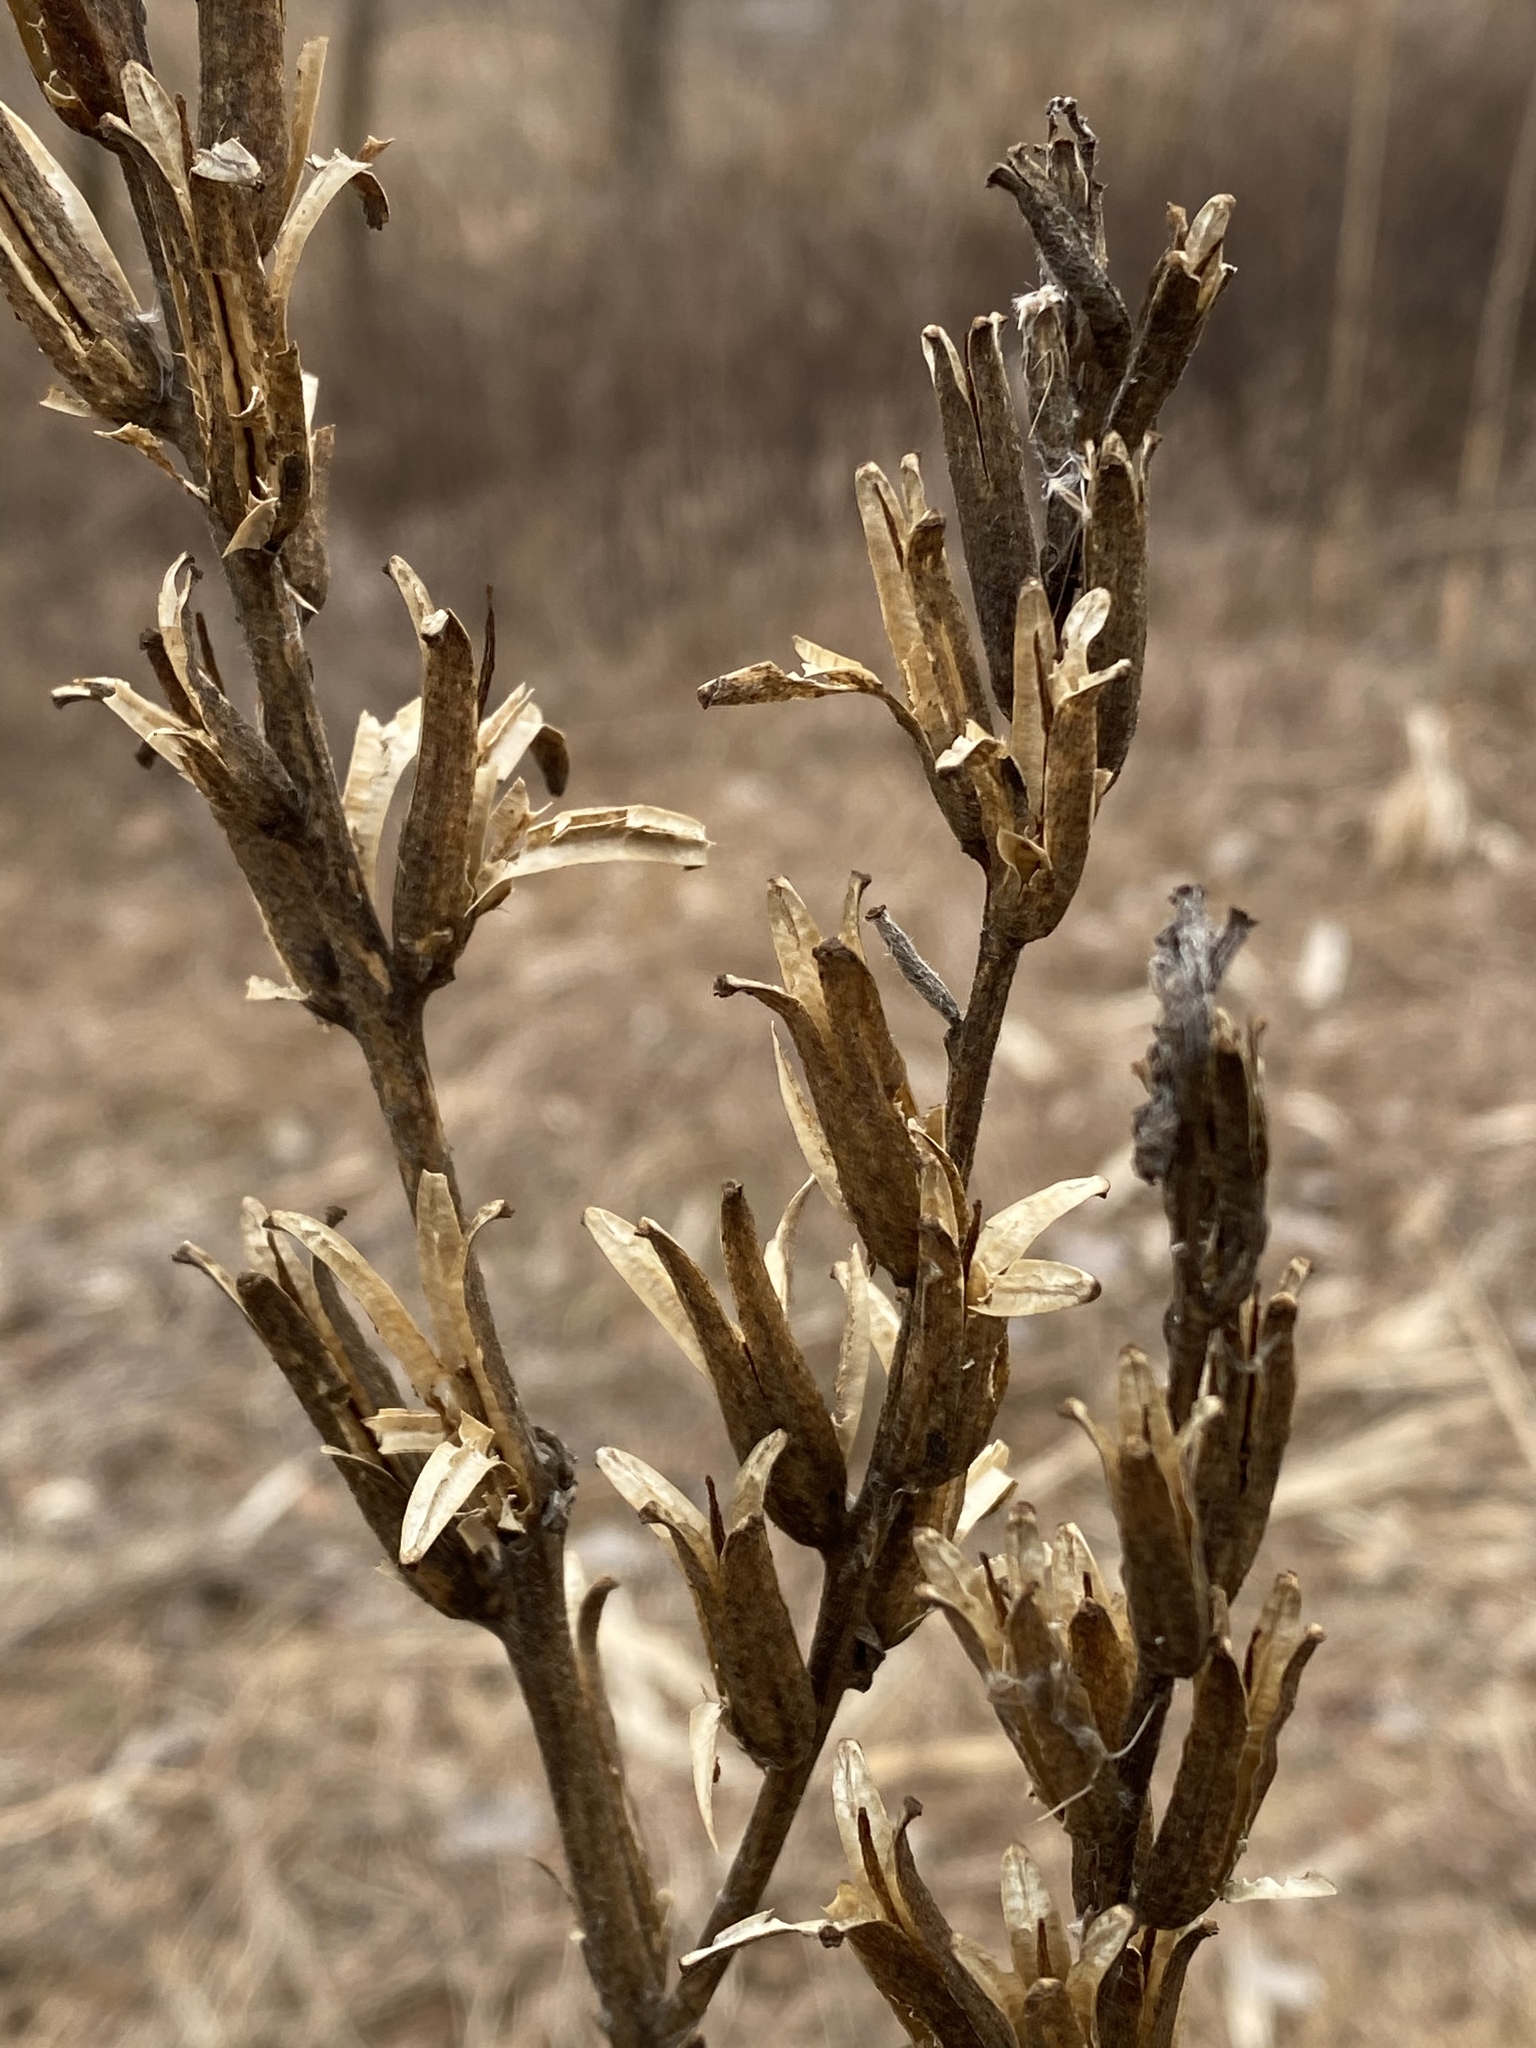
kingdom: Plantae
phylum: Tracheophyta
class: Magnoliopsida
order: Myrtales
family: Onagraceae
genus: Oenothera
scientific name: Oenothera biennis
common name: Common evening-primrose
